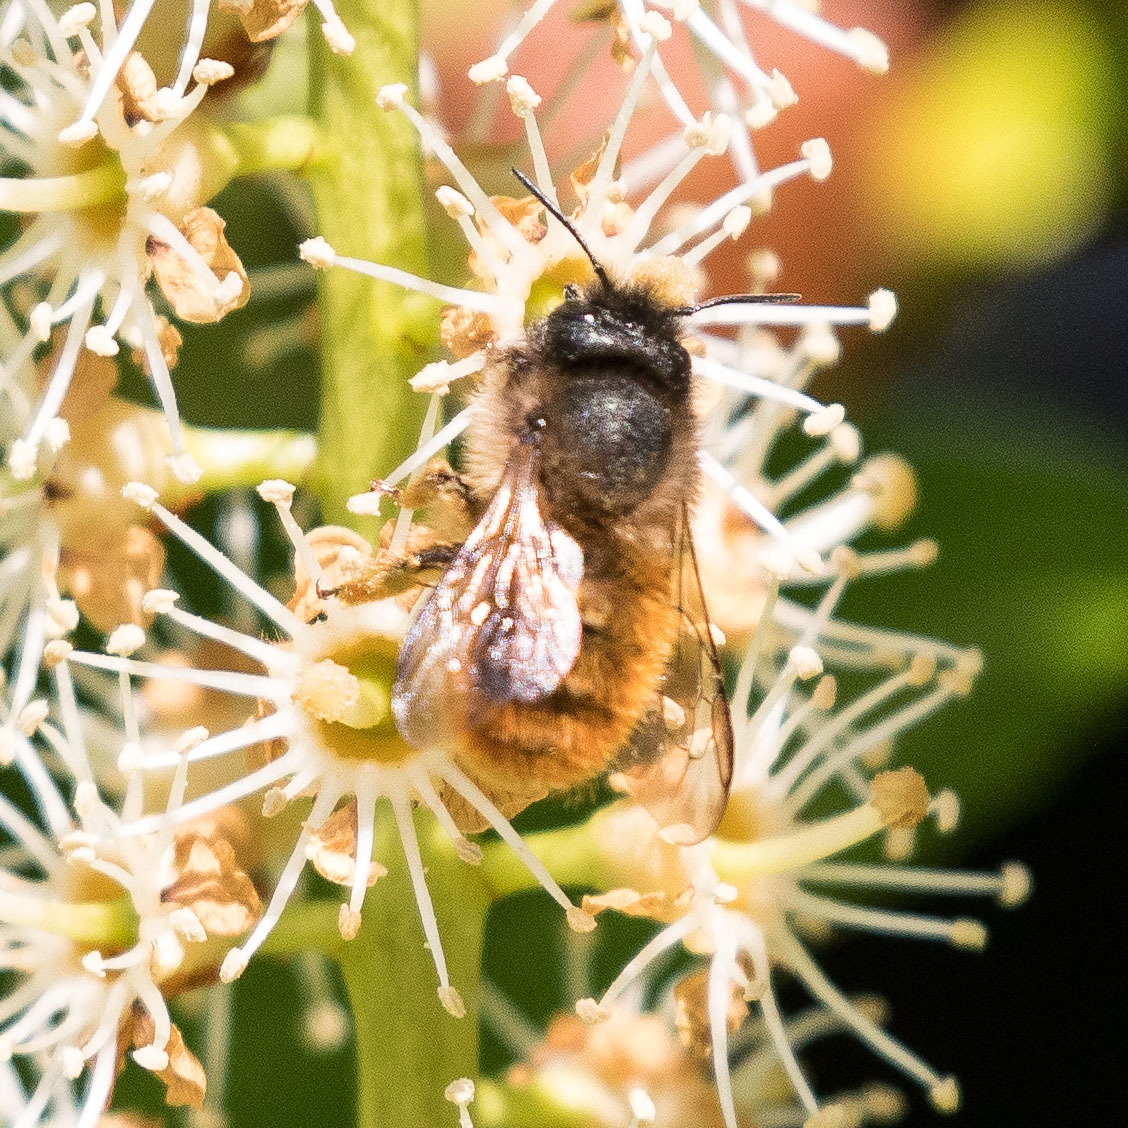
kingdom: Animalia
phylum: Arthropoda
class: Insecta
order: Hymenoptera
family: Megachilidae
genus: Osmia
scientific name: Osmia bicornis
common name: Red mason bee
